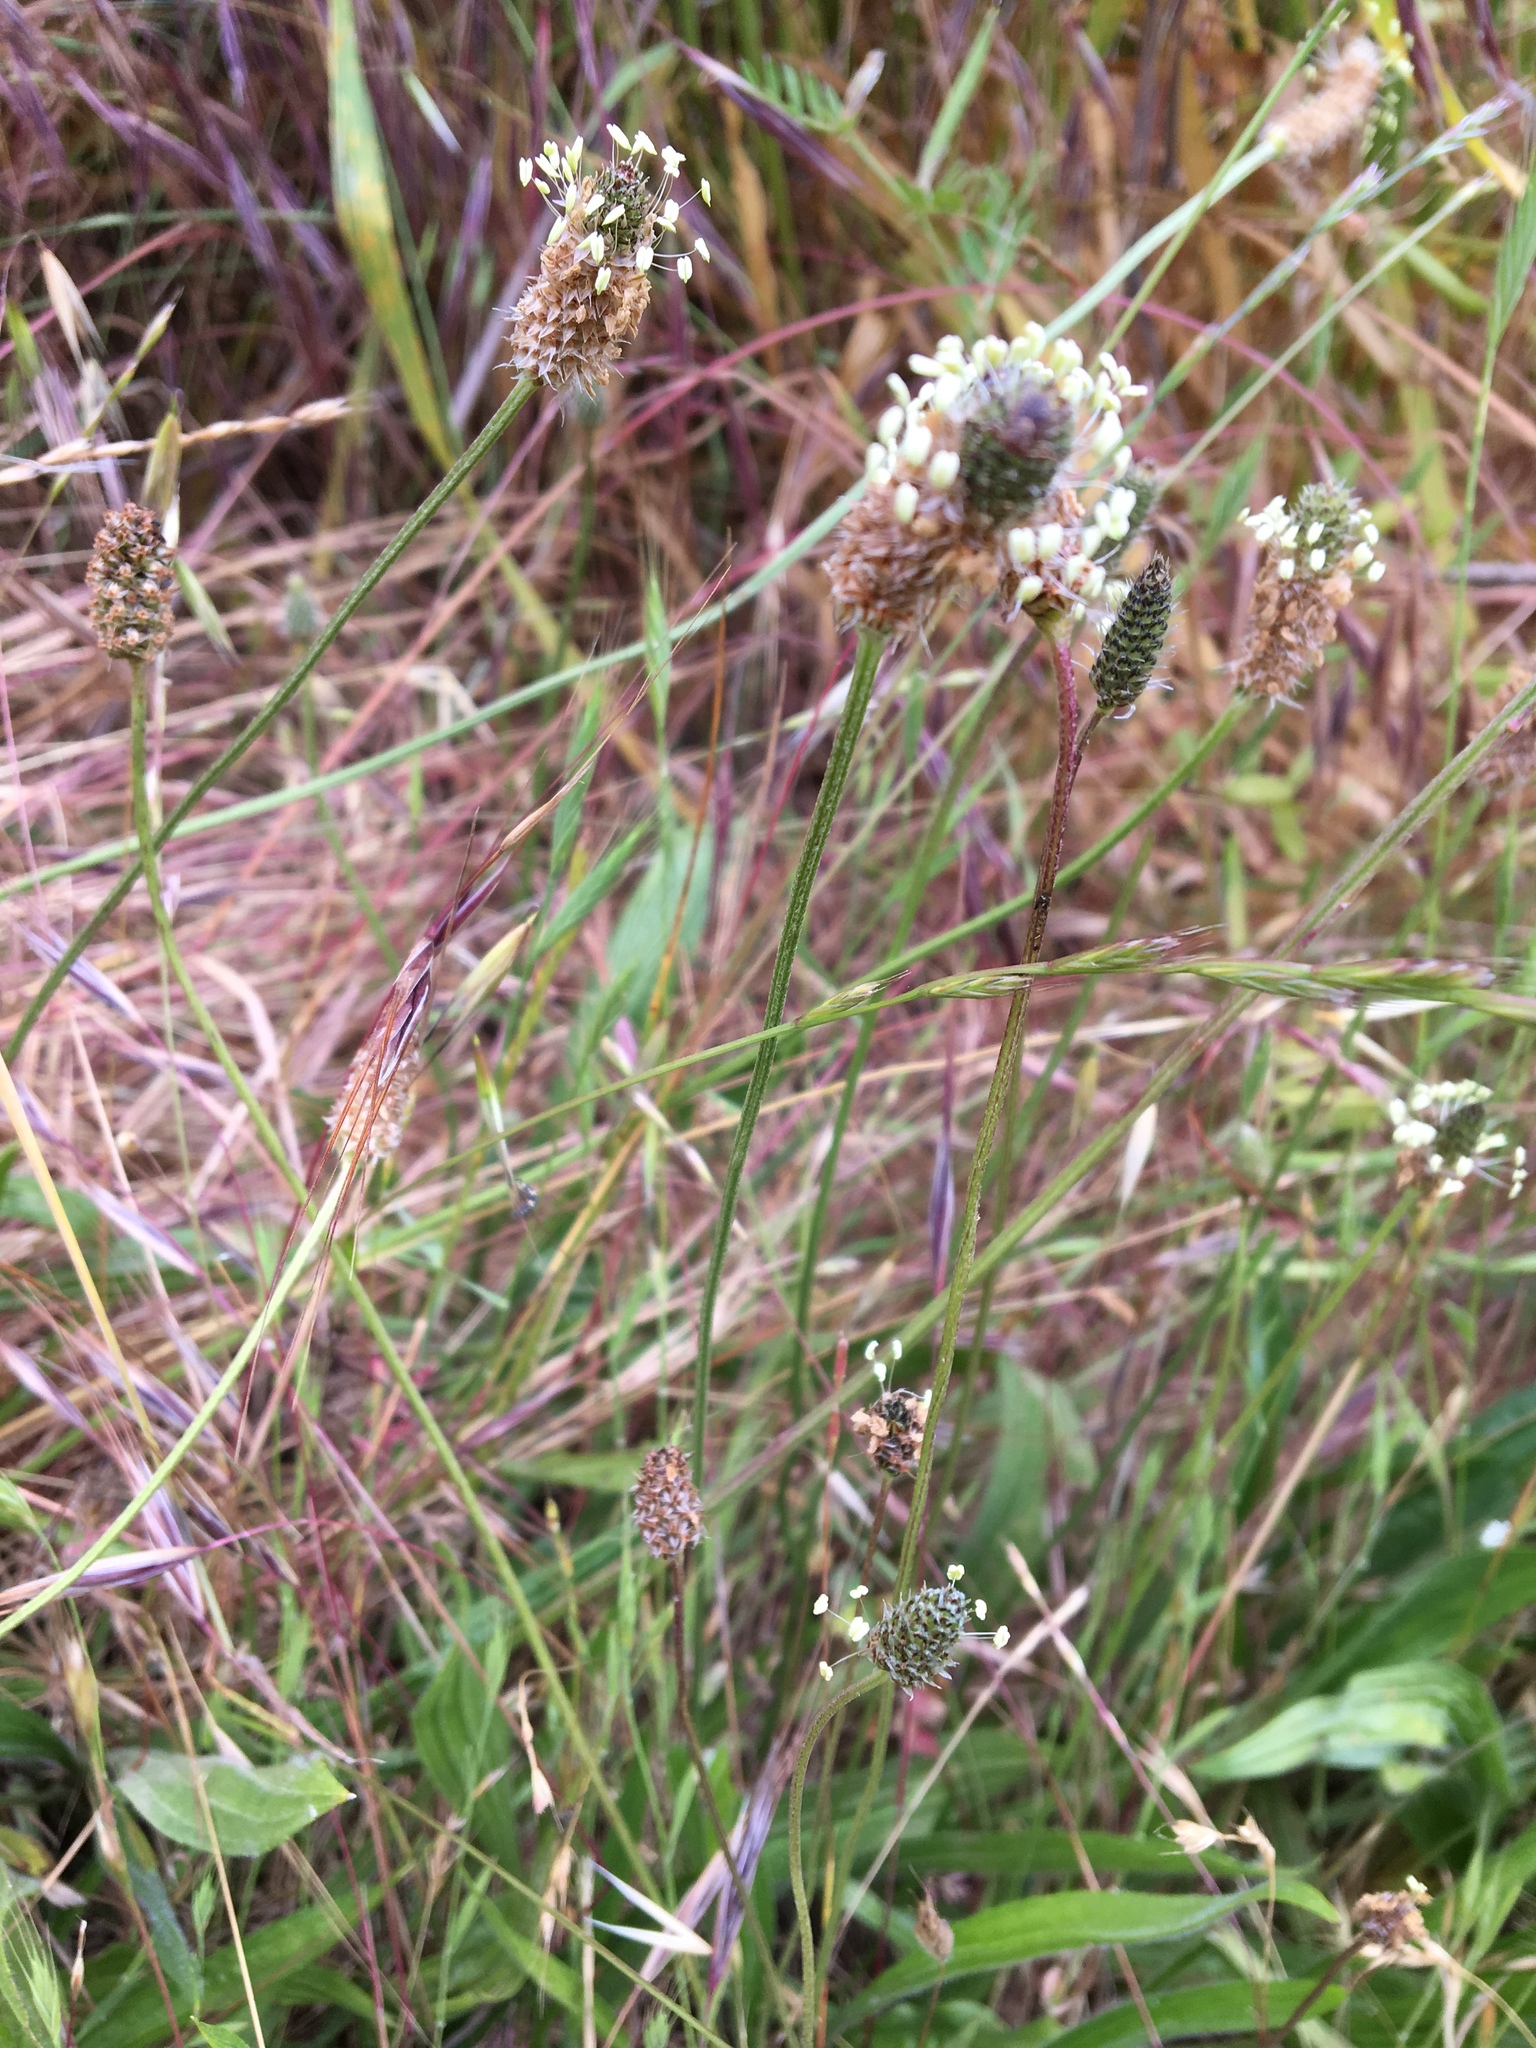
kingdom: Plantae
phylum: Tracheophyta
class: Magnoliopsida
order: Lamiales
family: Plantaginaceae
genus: Plantago
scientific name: Plantago lanceolata
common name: Ribwort plantain
